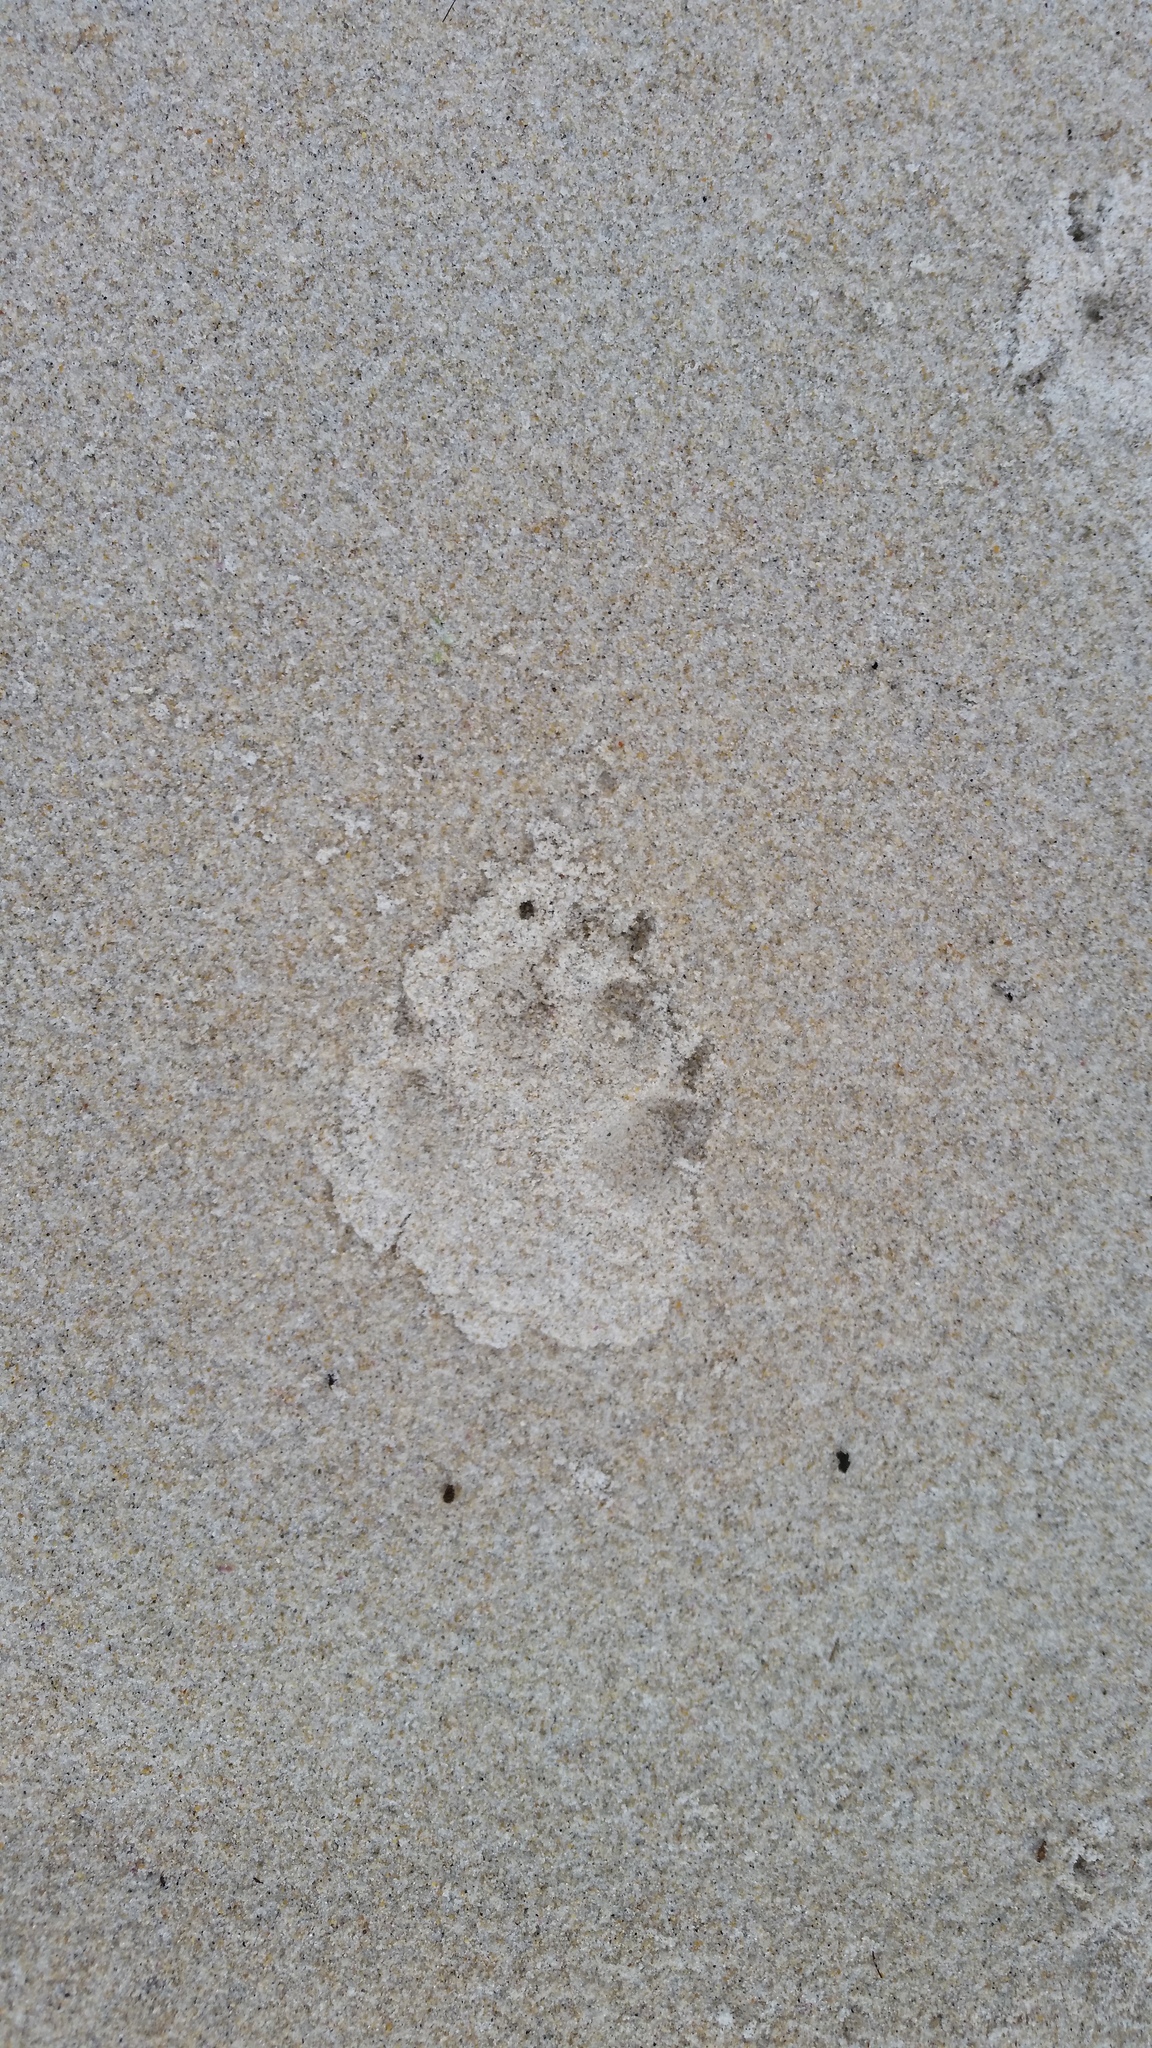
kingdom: Animalia
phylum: Chordata
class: Mammalia
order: Carnivora
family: Canidae
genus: Vulpes
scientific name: Vulpes vulpes
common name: Red fox
